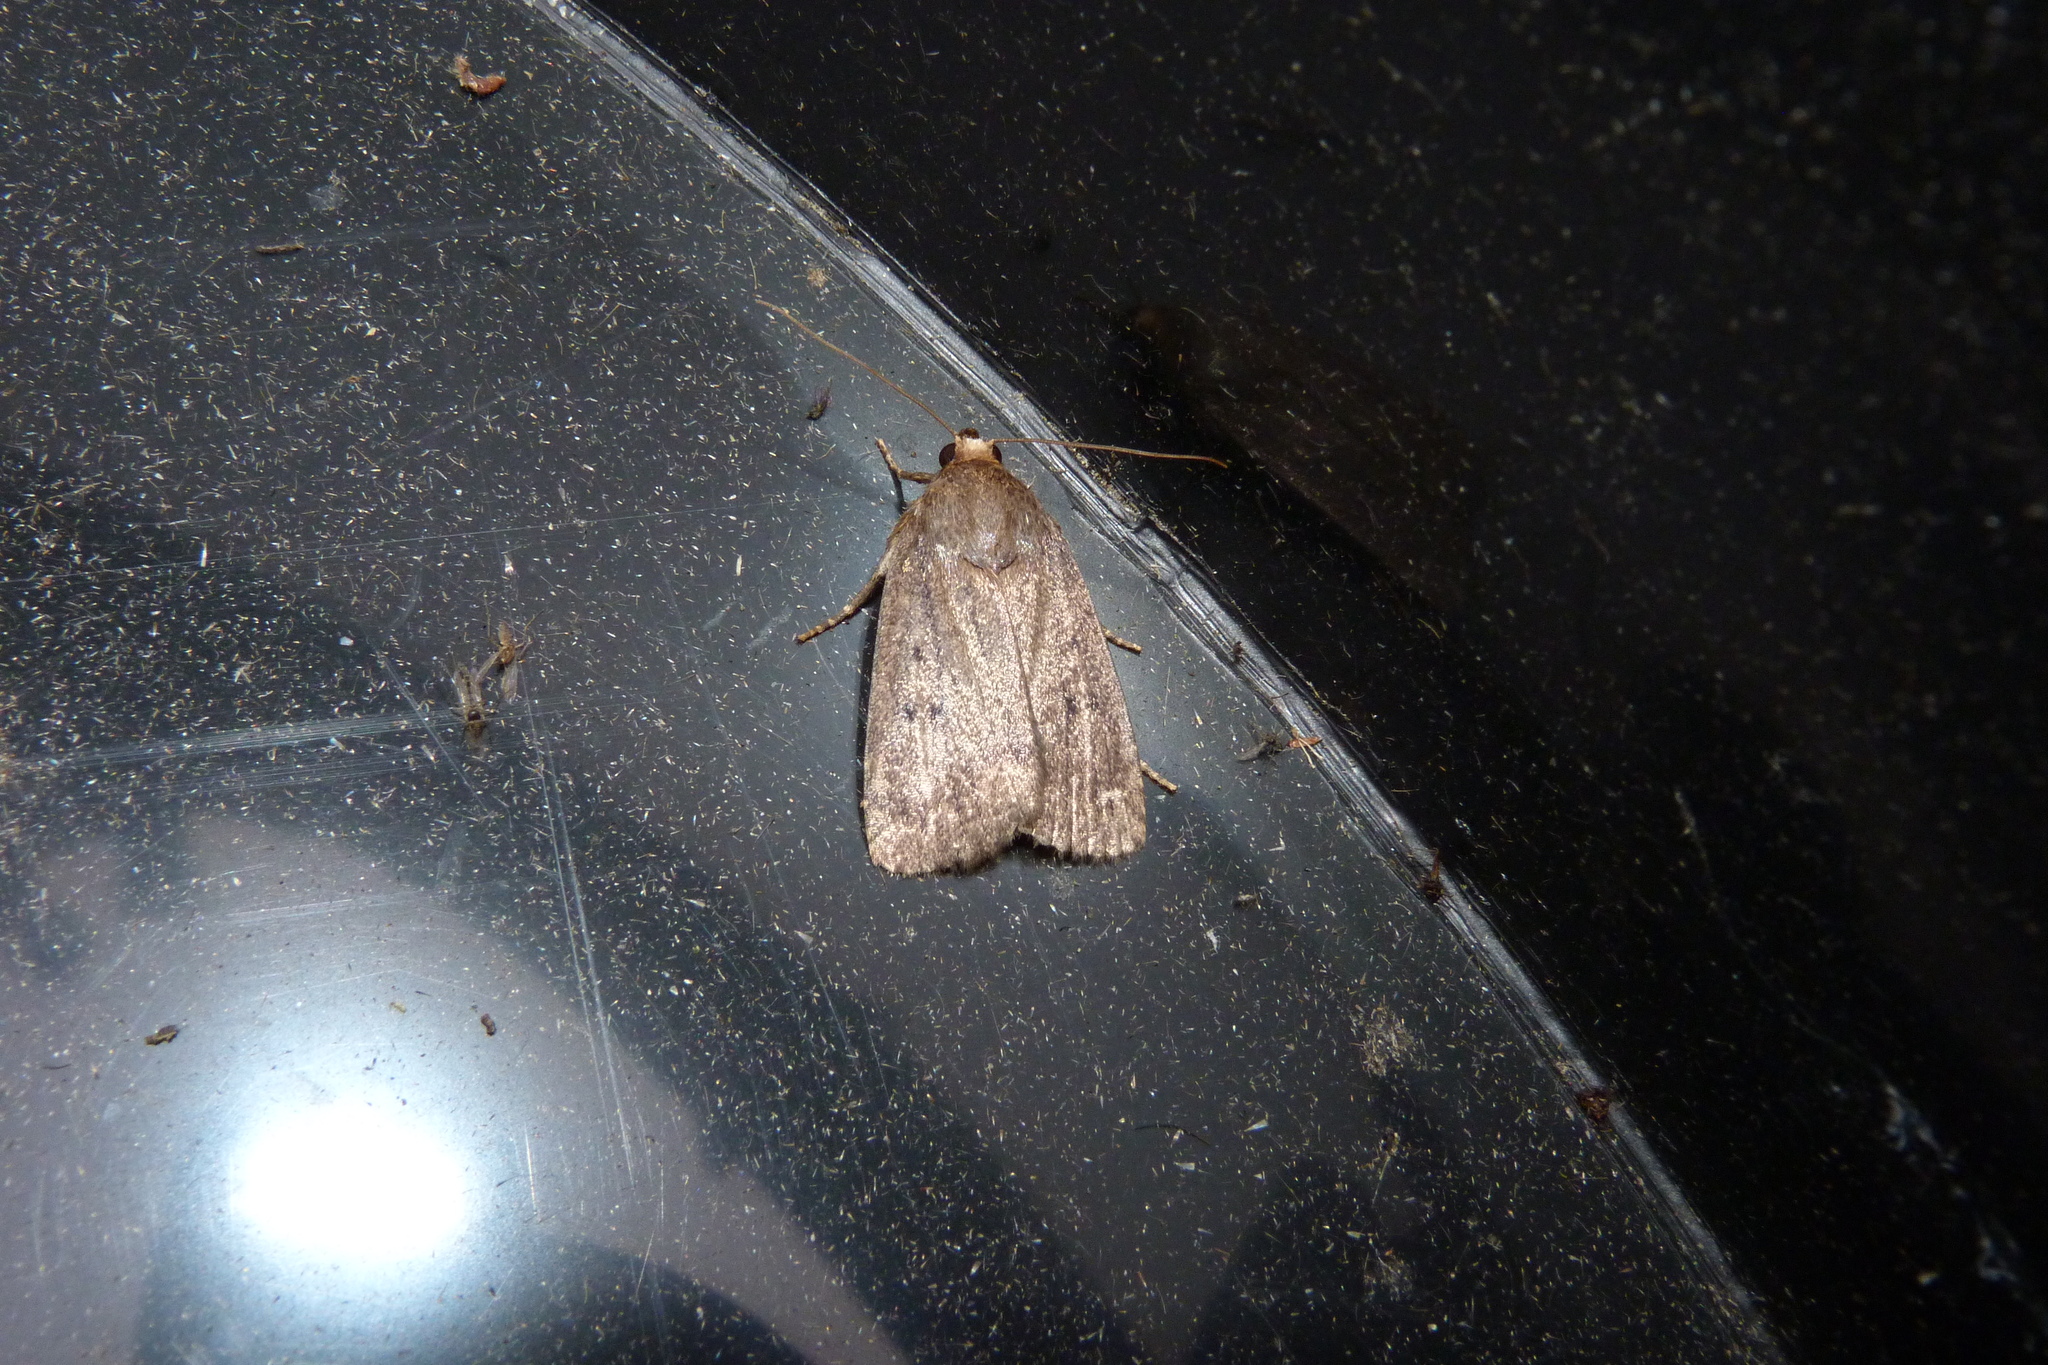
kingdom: Animalia
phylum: Arthropoda
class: Insecta
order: Lepidoptera
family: Noctuidae
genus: Amphipyra
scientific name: Amphipyra tragopoginis
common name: Mouse moth
